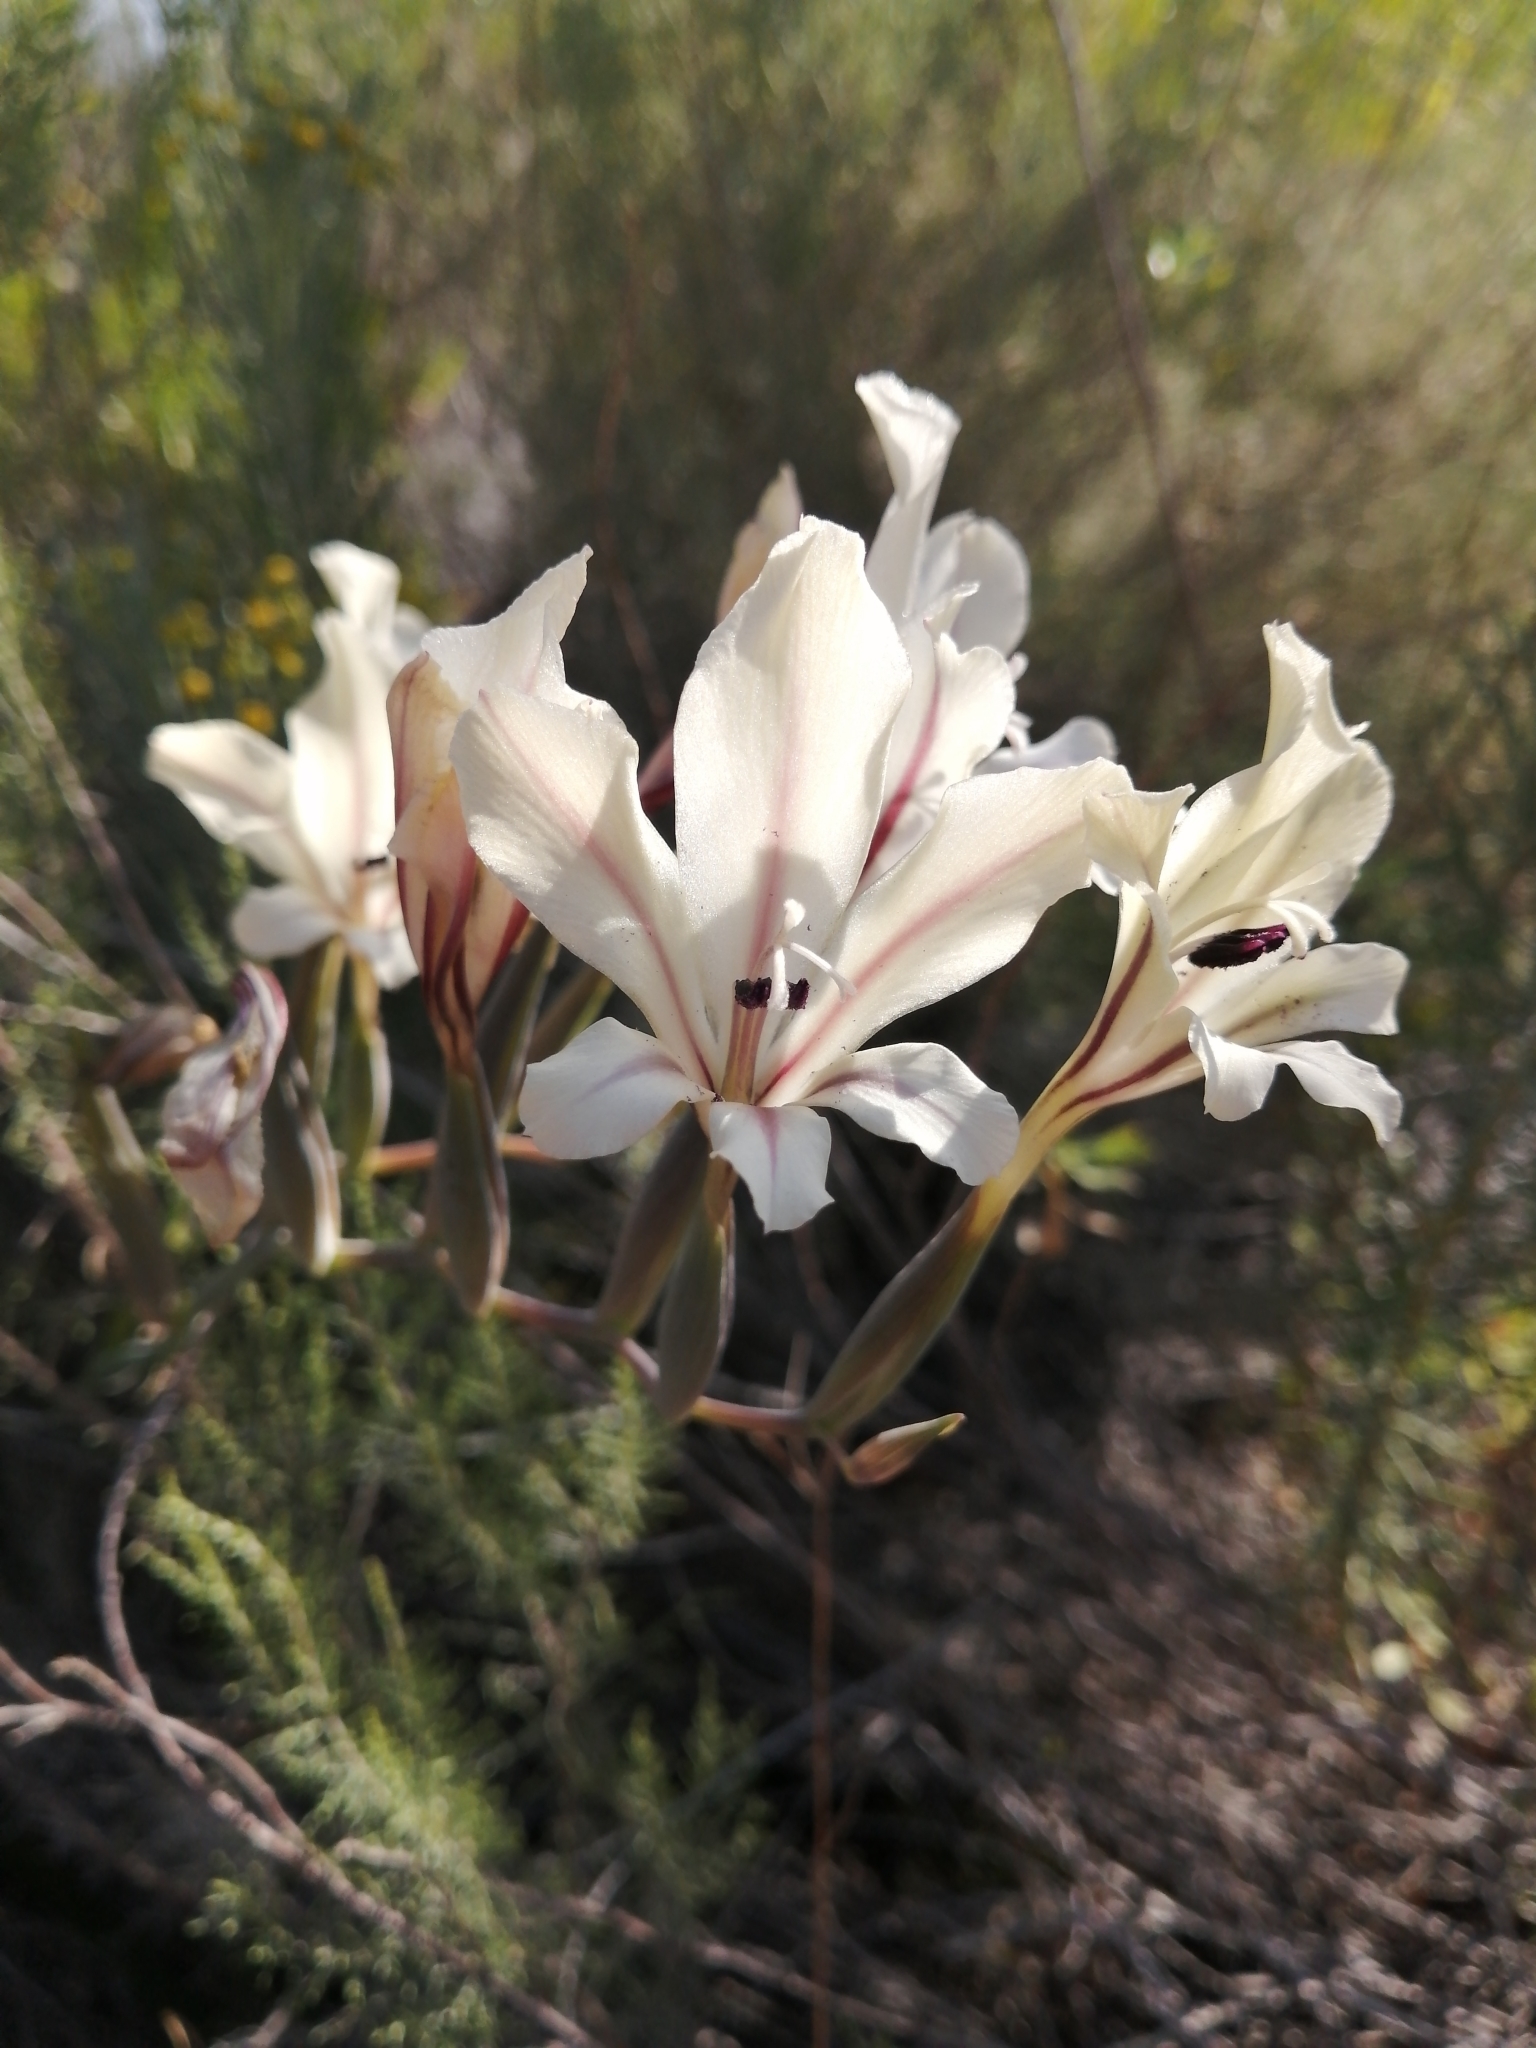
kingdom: Plantae
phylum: Tracheophyta
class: Liliopsida
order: Asparagales
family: Iridaceae
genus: Gladiolus
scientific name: Gladiolus floribundus
